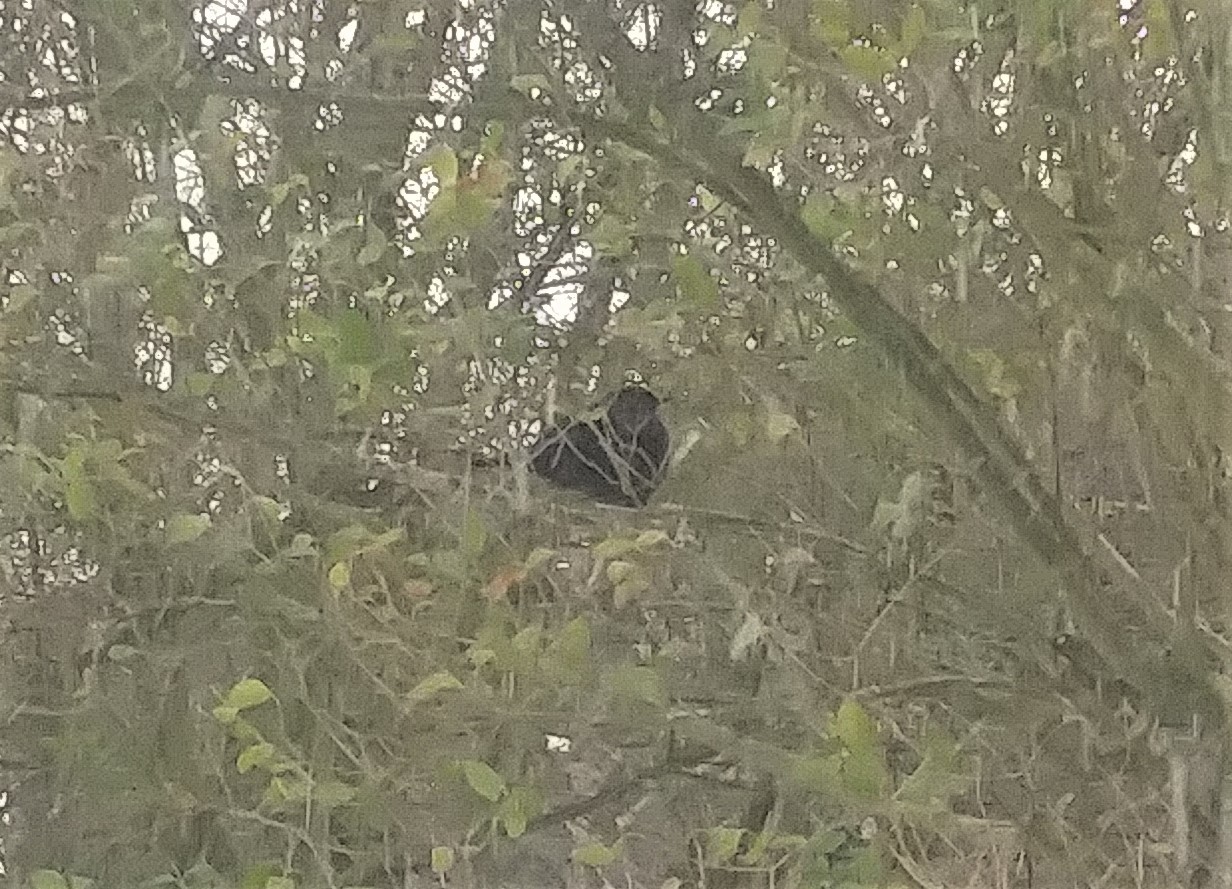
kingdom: Animalia
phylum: Chordata
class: Aves
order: Passeriformes
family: Turdidae
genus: Turdus
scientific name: Turdus merula
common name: Common blackbird
